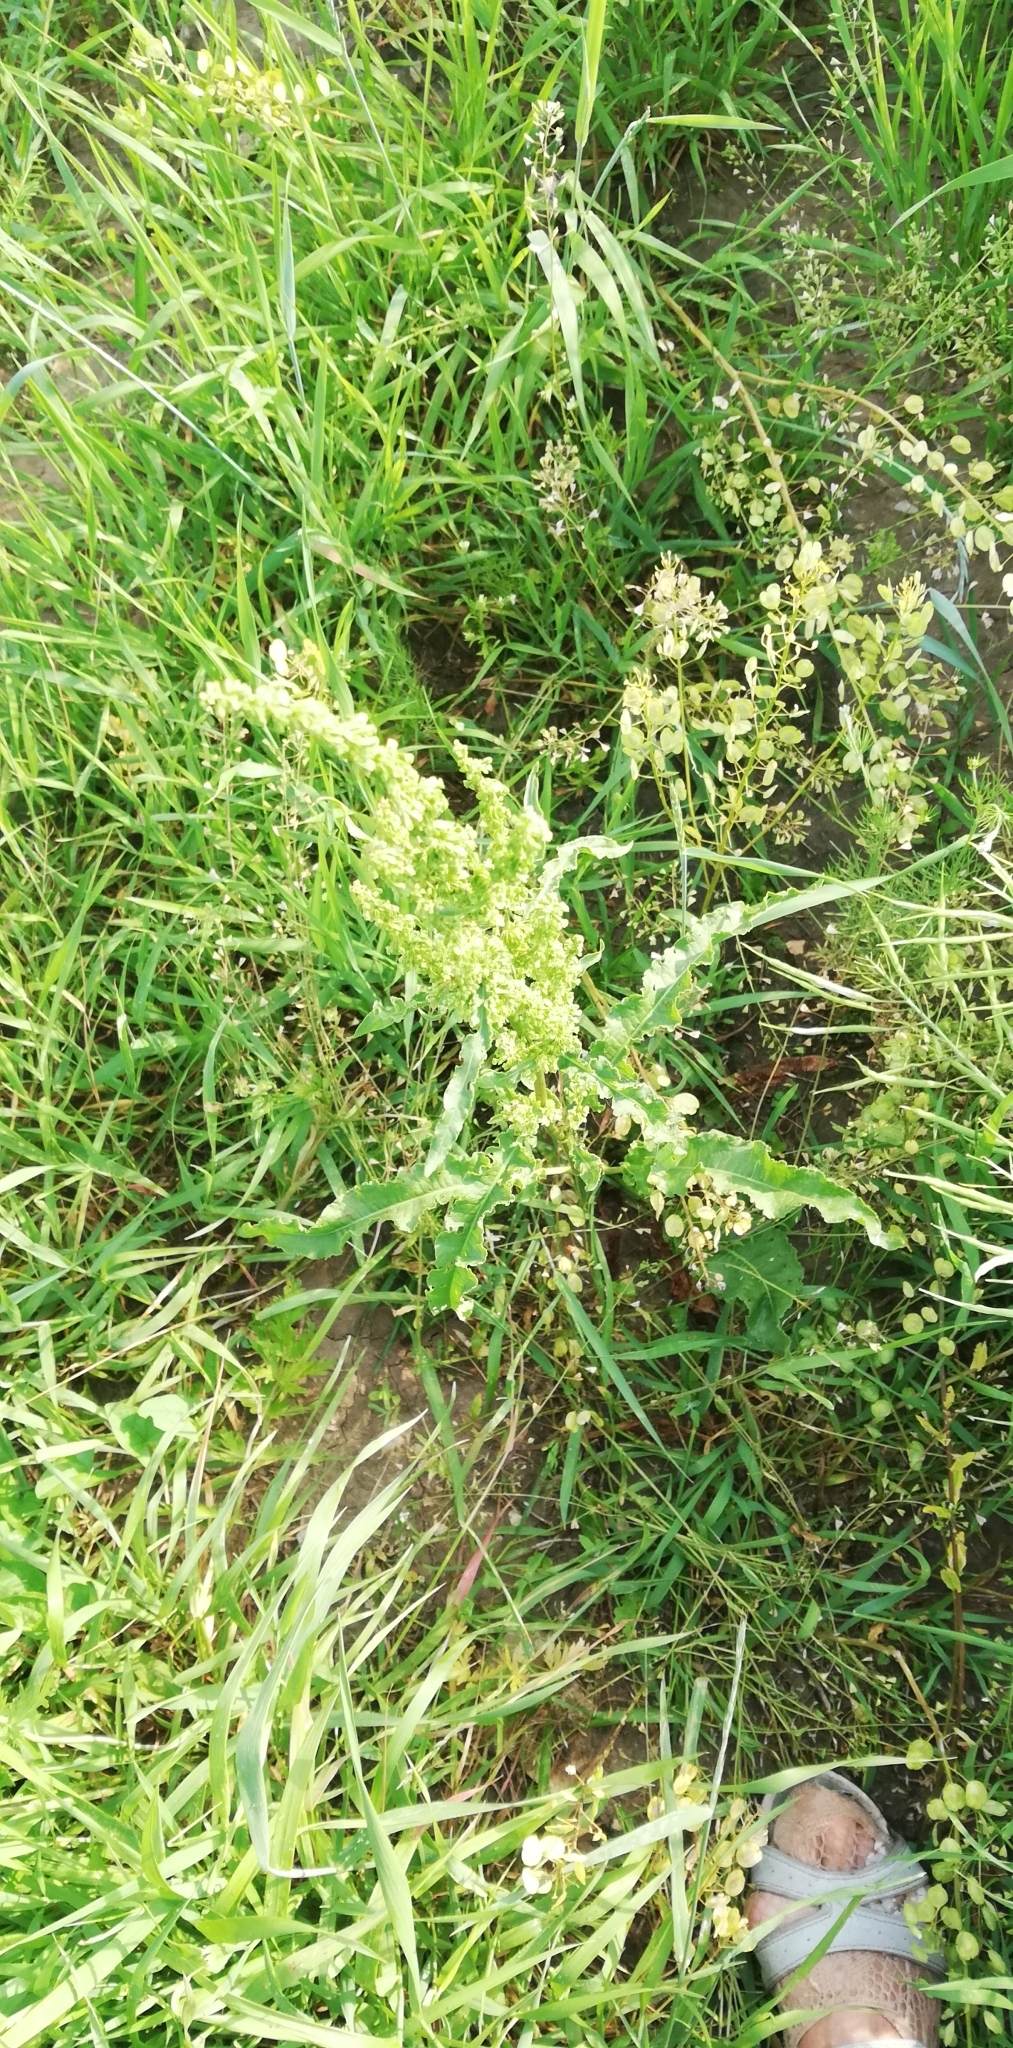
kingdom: Plantae
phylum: Tracheophyta
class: Magnoliopsida
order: Caryophyllales
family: Polygonaceae
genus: Rumex
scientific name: Rumex crispus
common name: Curled dock
